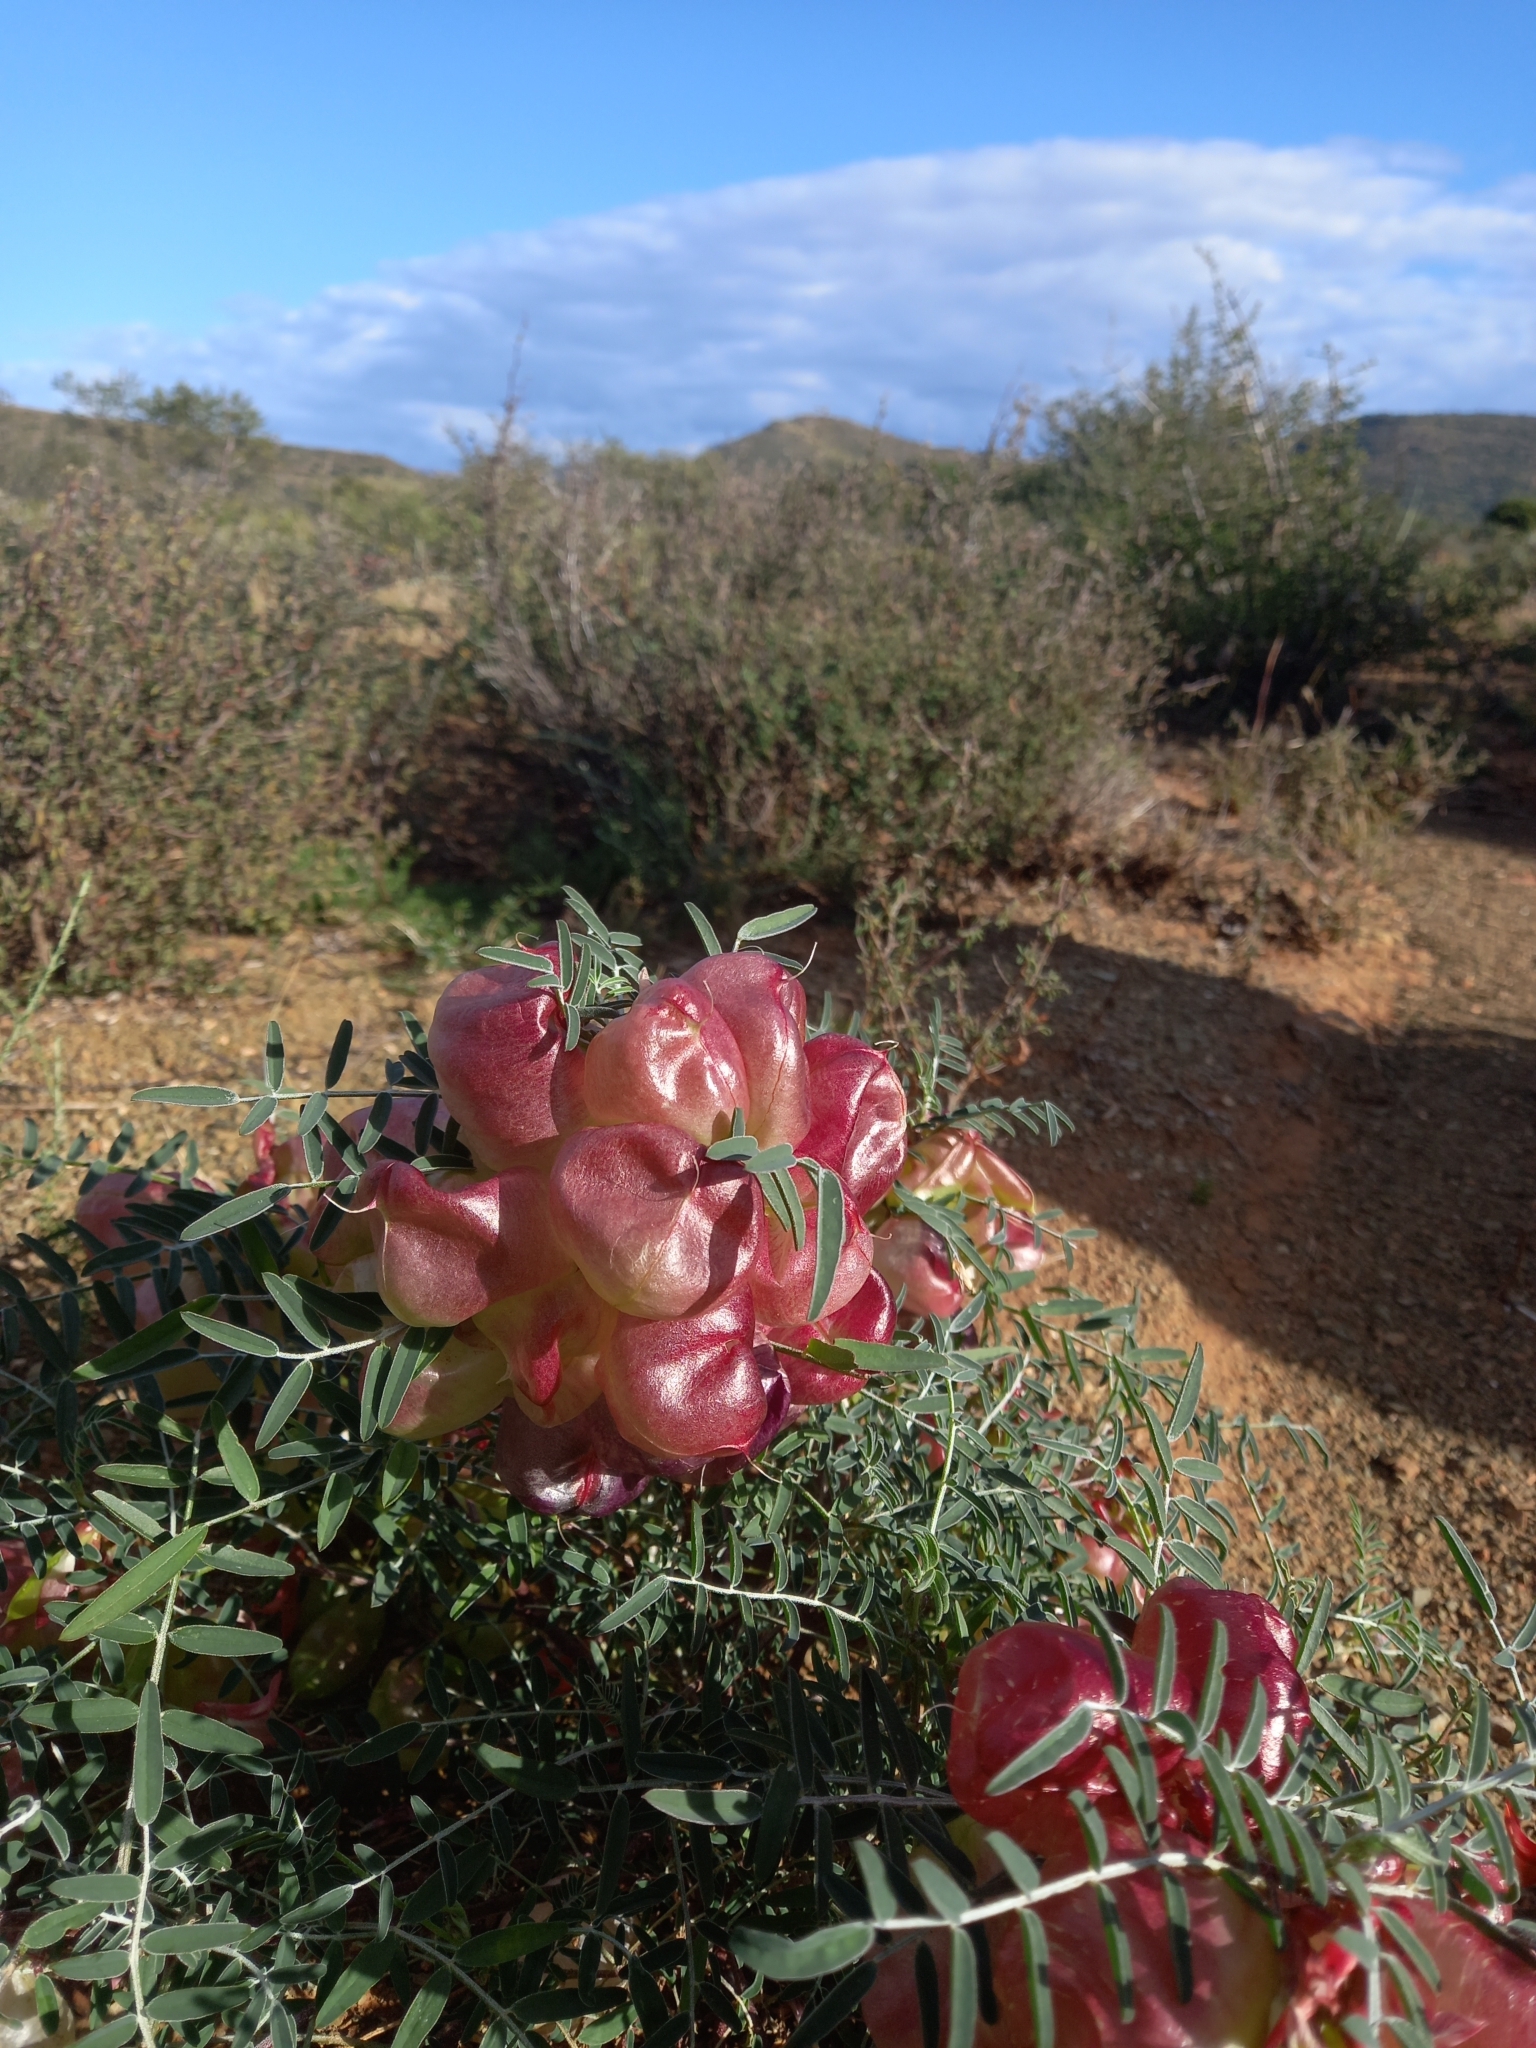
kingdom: Plantae
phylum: Tracheophyta
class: Magnoliopsida
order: Fabales
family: Fabaceae
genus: Lessertia
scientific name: Lessertia frutescens
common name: Balloon-pea
